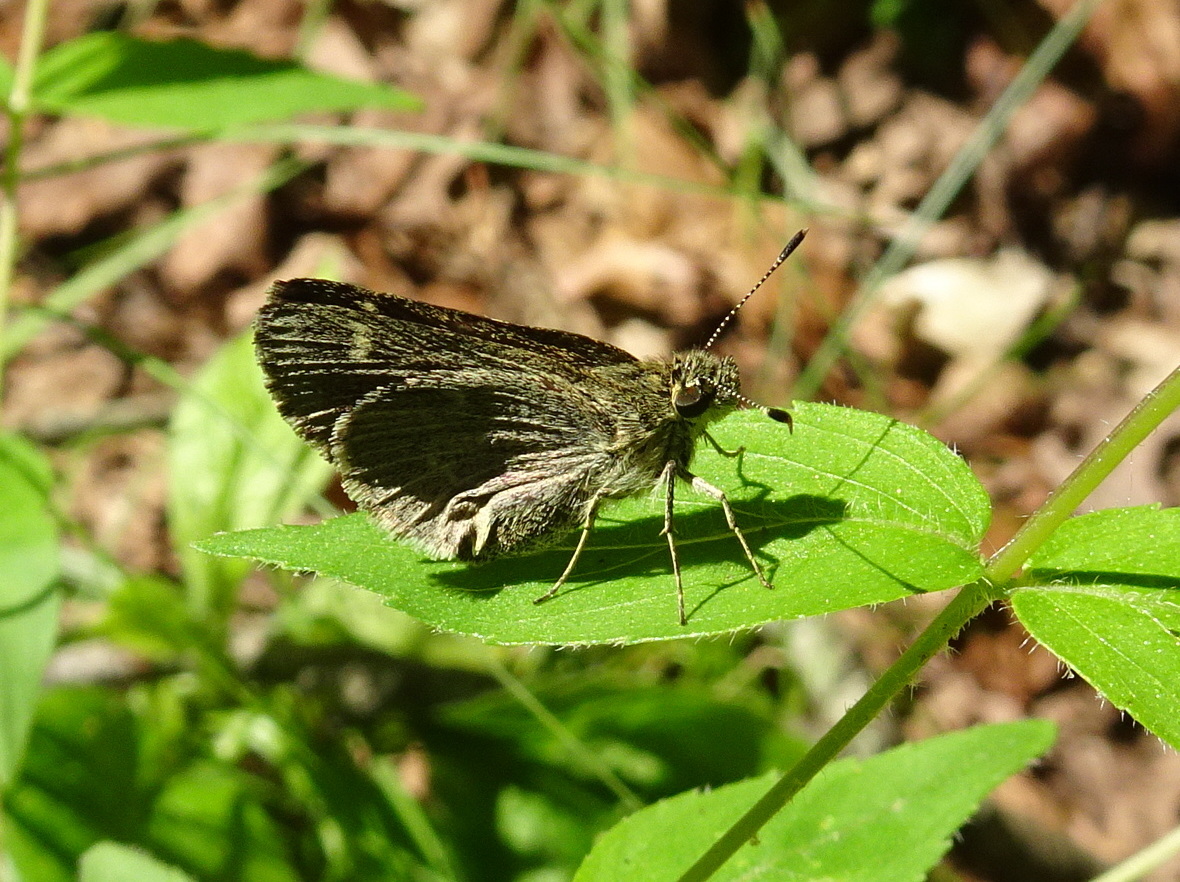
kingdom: Animalia
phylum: Arthropoda
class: Insecta
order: Lepidoptera
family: Hesperiidae
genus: Mastor
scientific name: Mastor hegon
